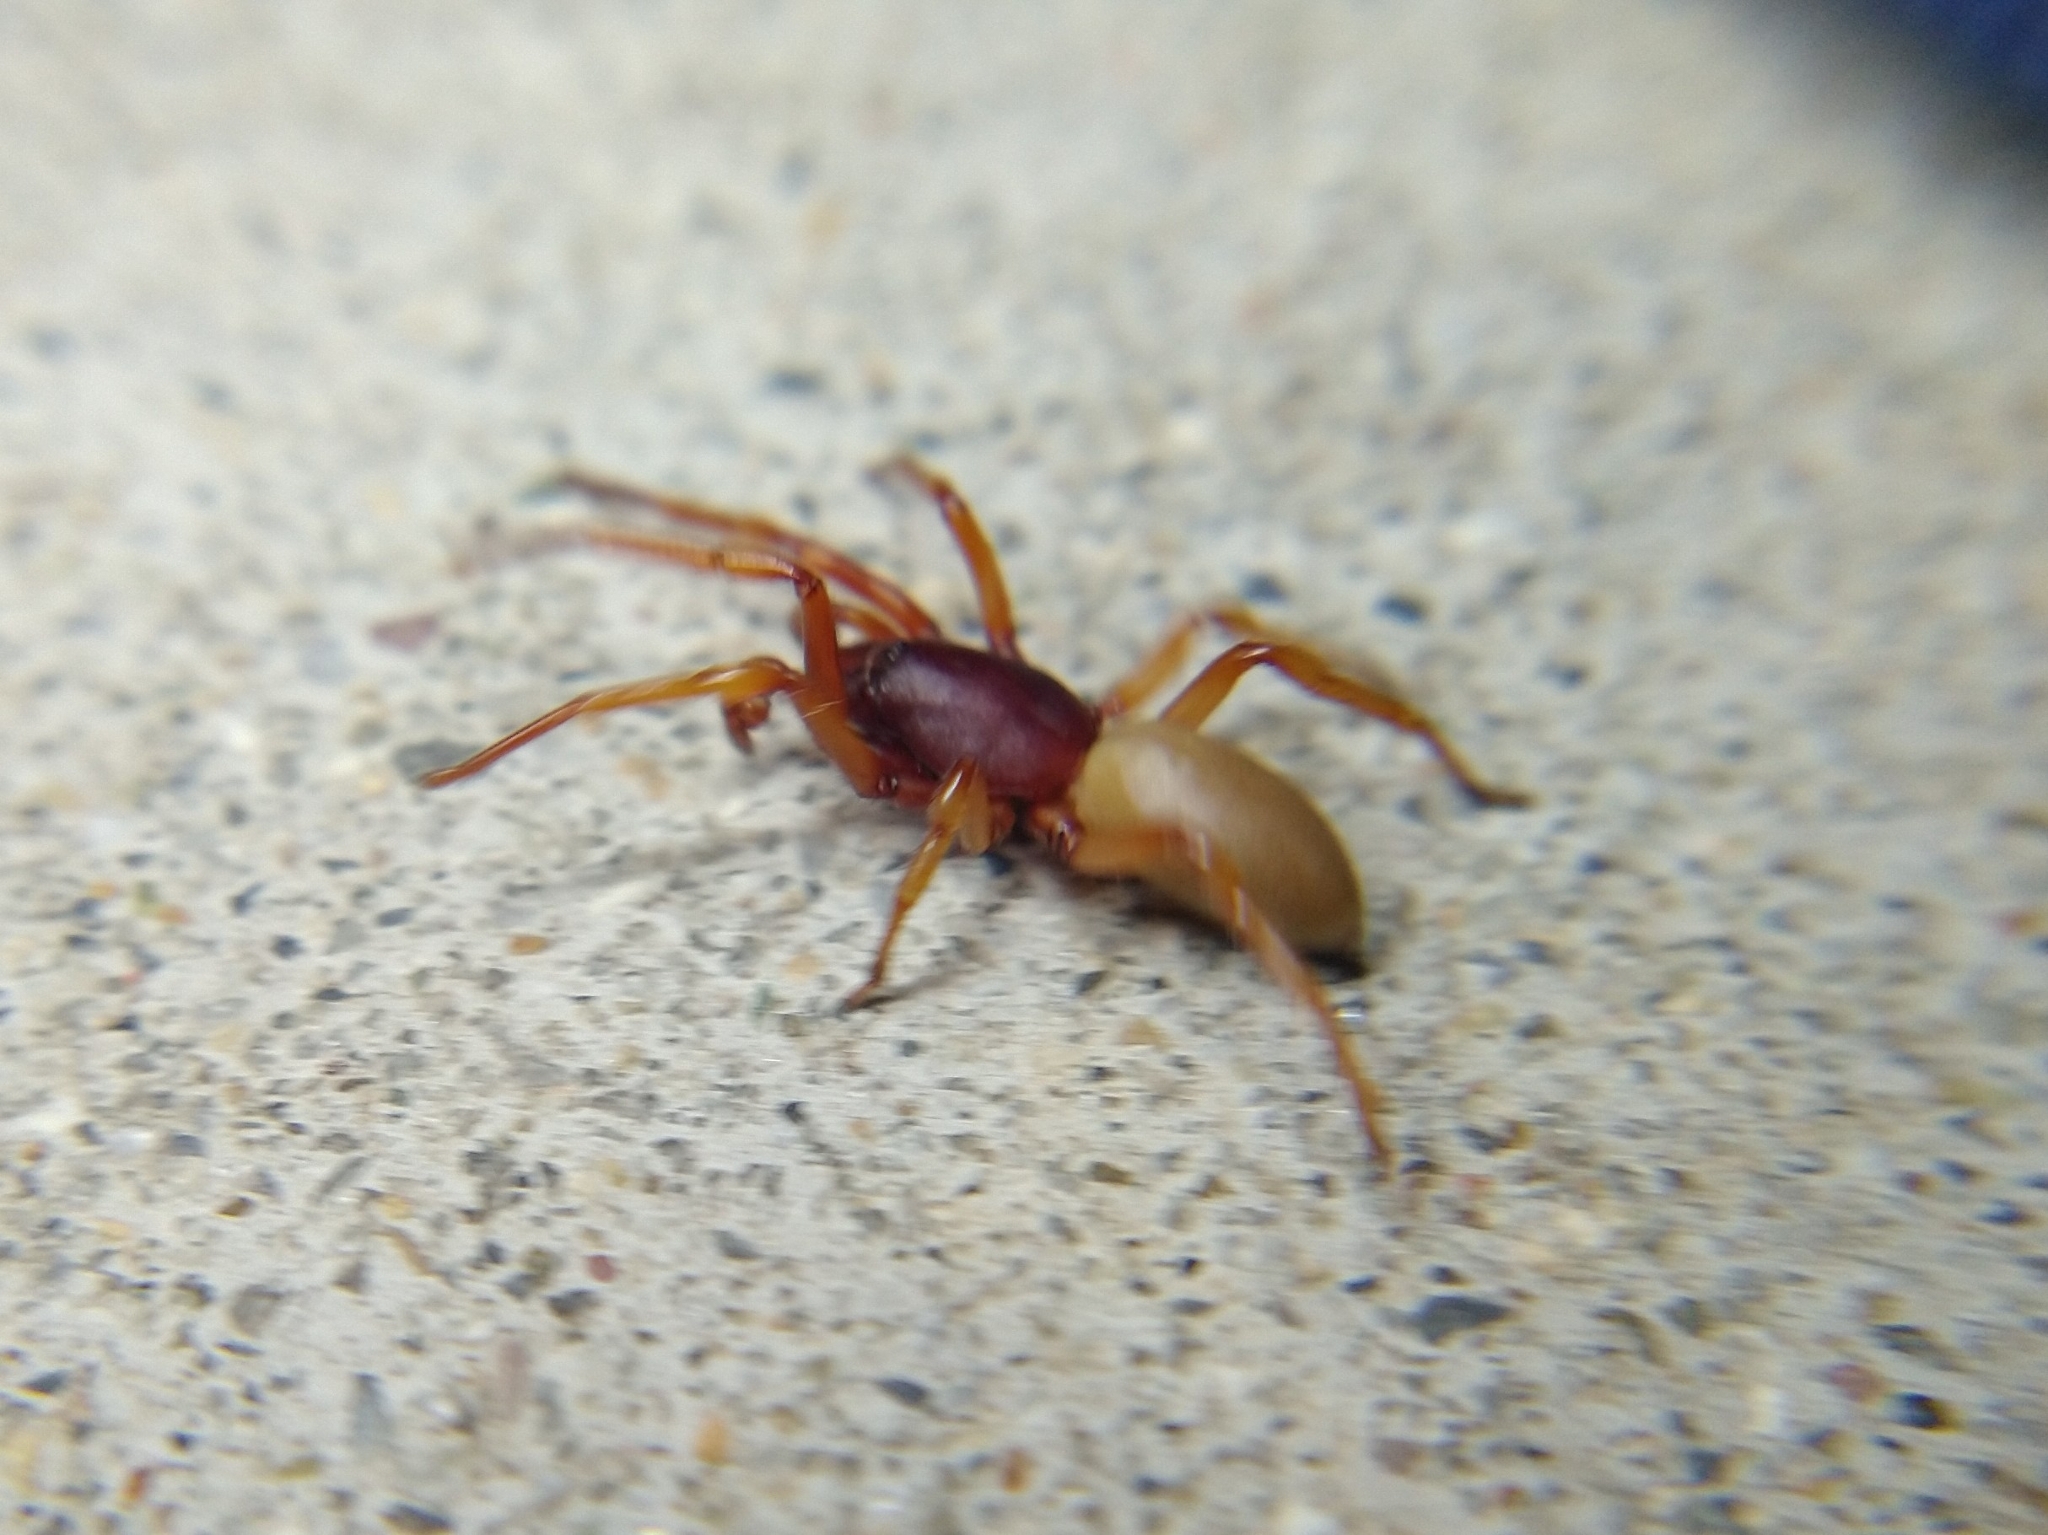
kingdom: Animalia
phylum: Arthropoda
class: Arachnida
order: Araneae
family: Dysderidae
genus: Dysdera
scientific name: Dysdera crocata
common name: Woodlouse spider
